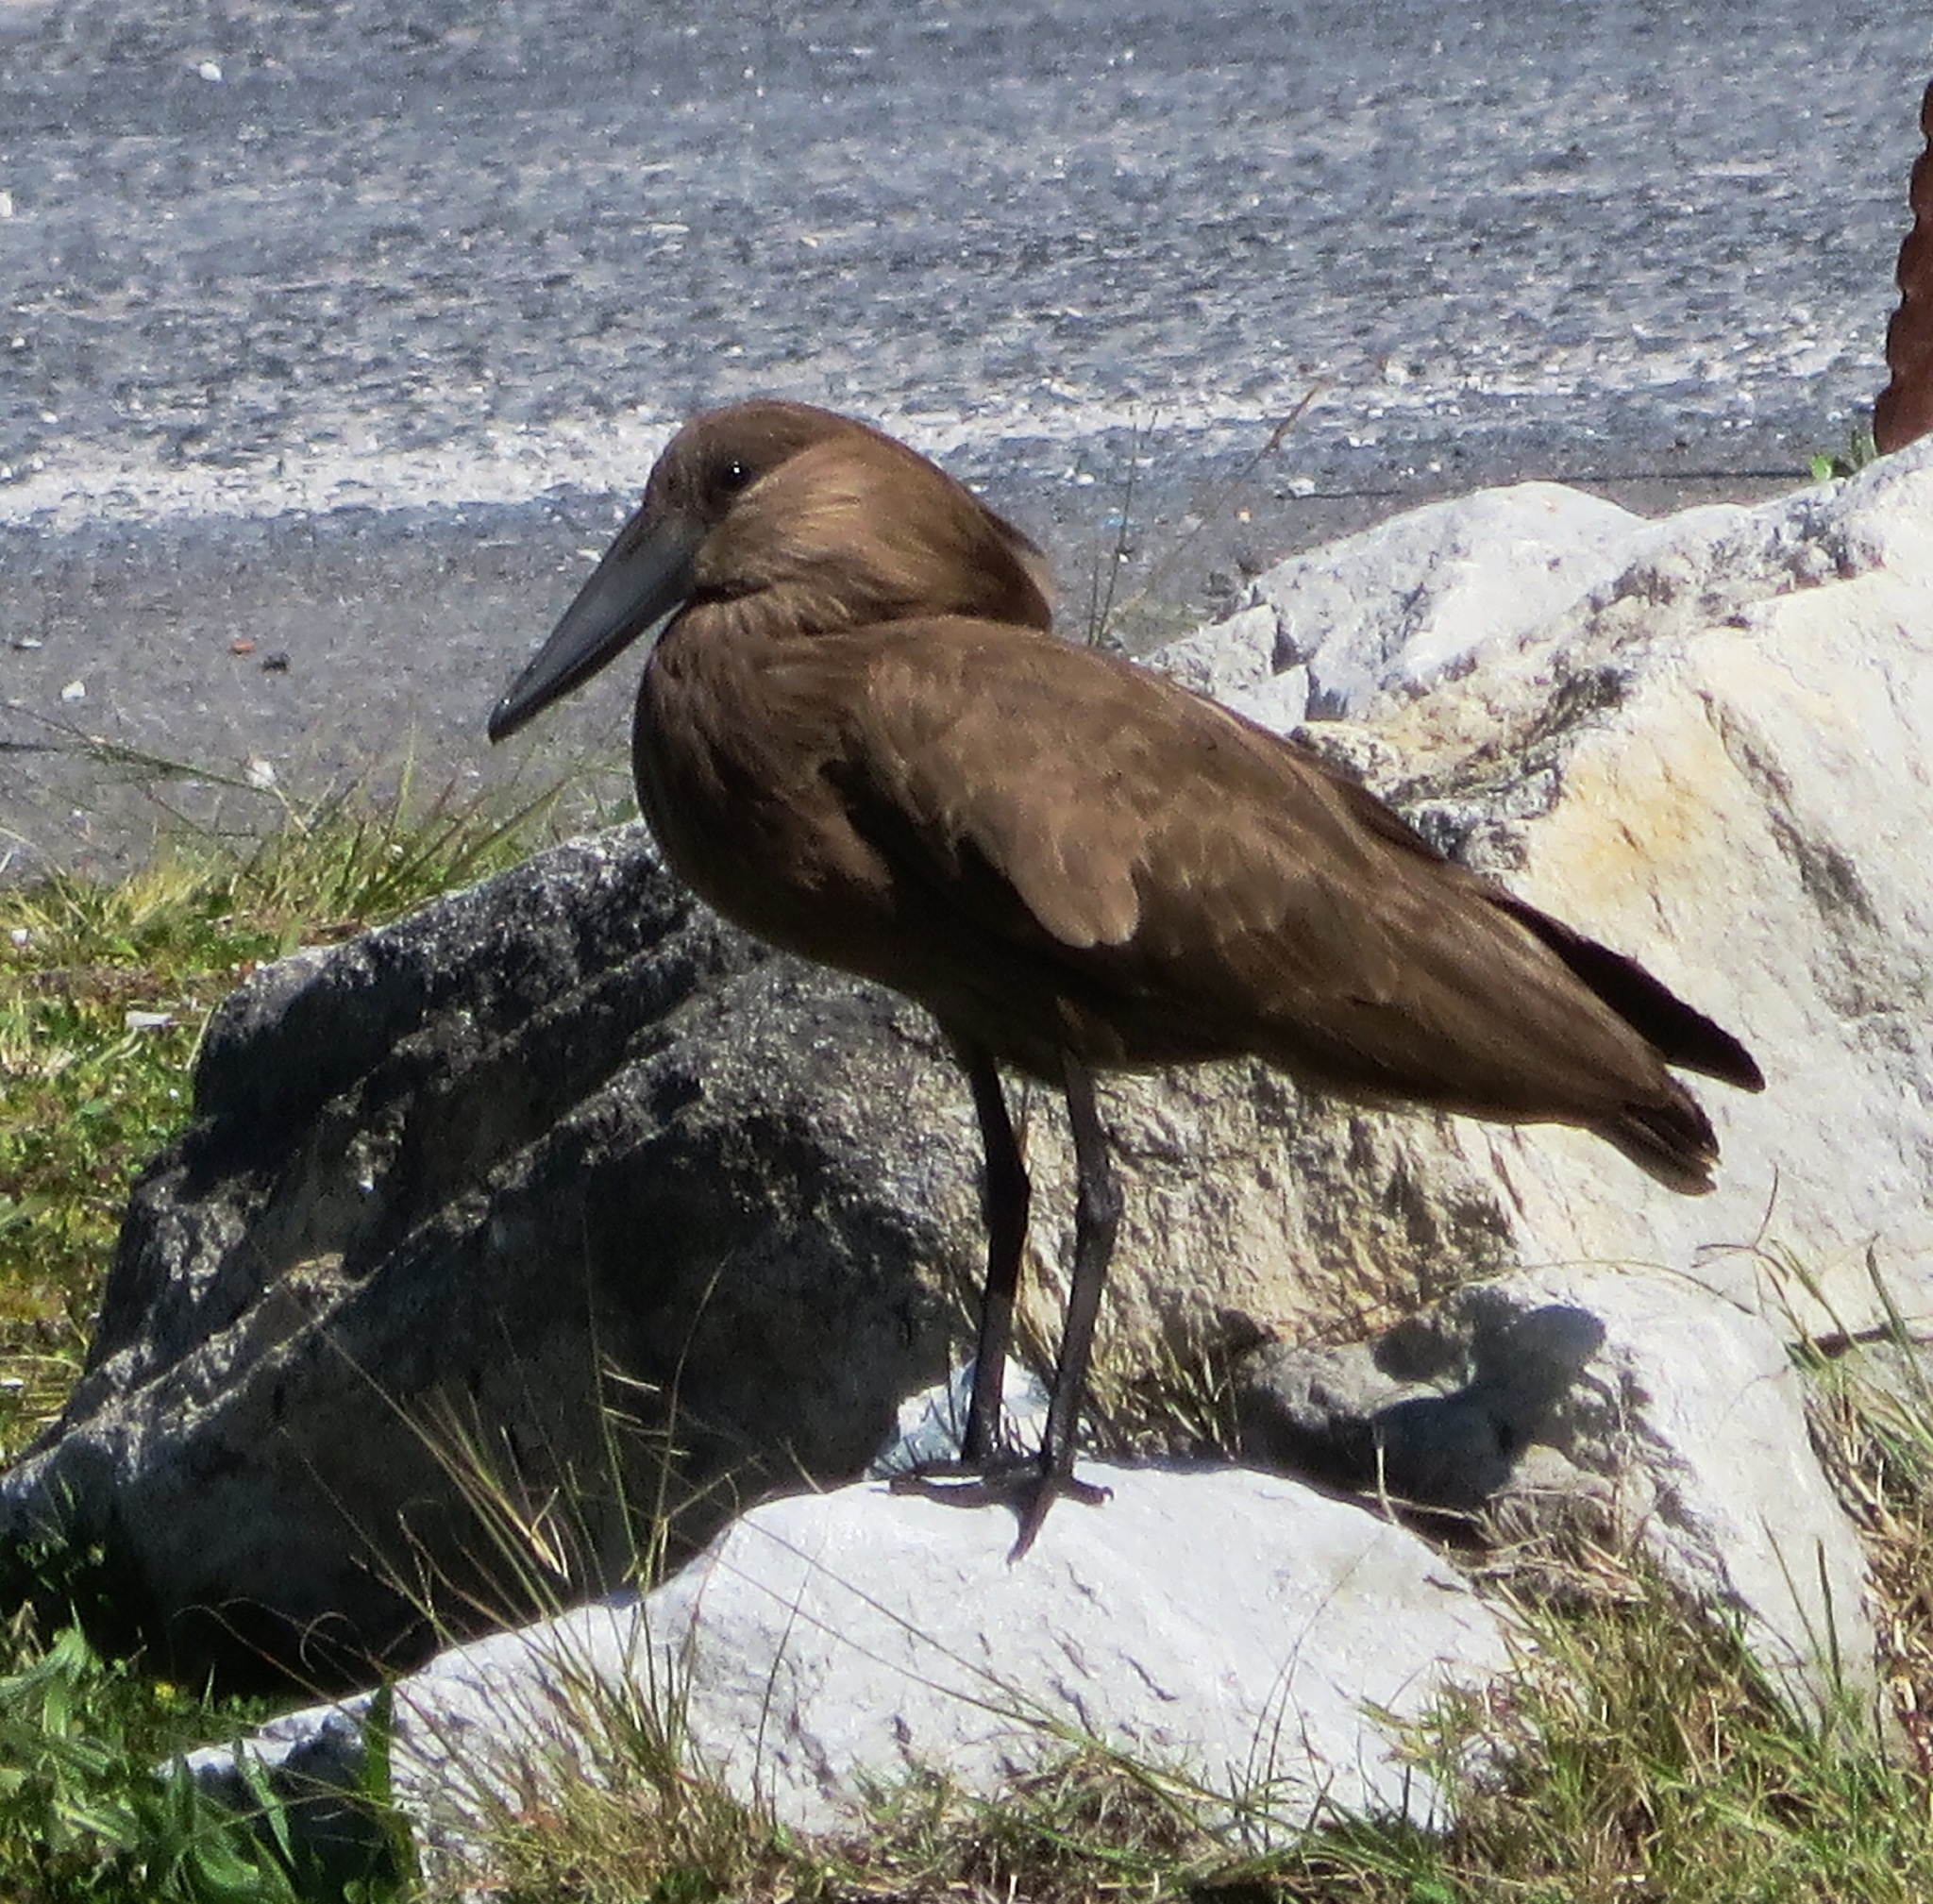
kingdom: Animalia
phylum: Chordata
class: Aves
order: Pelecaniformes
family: Scopidae
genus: Scopus
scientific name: Scopus umbretta
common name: Hamerkop
